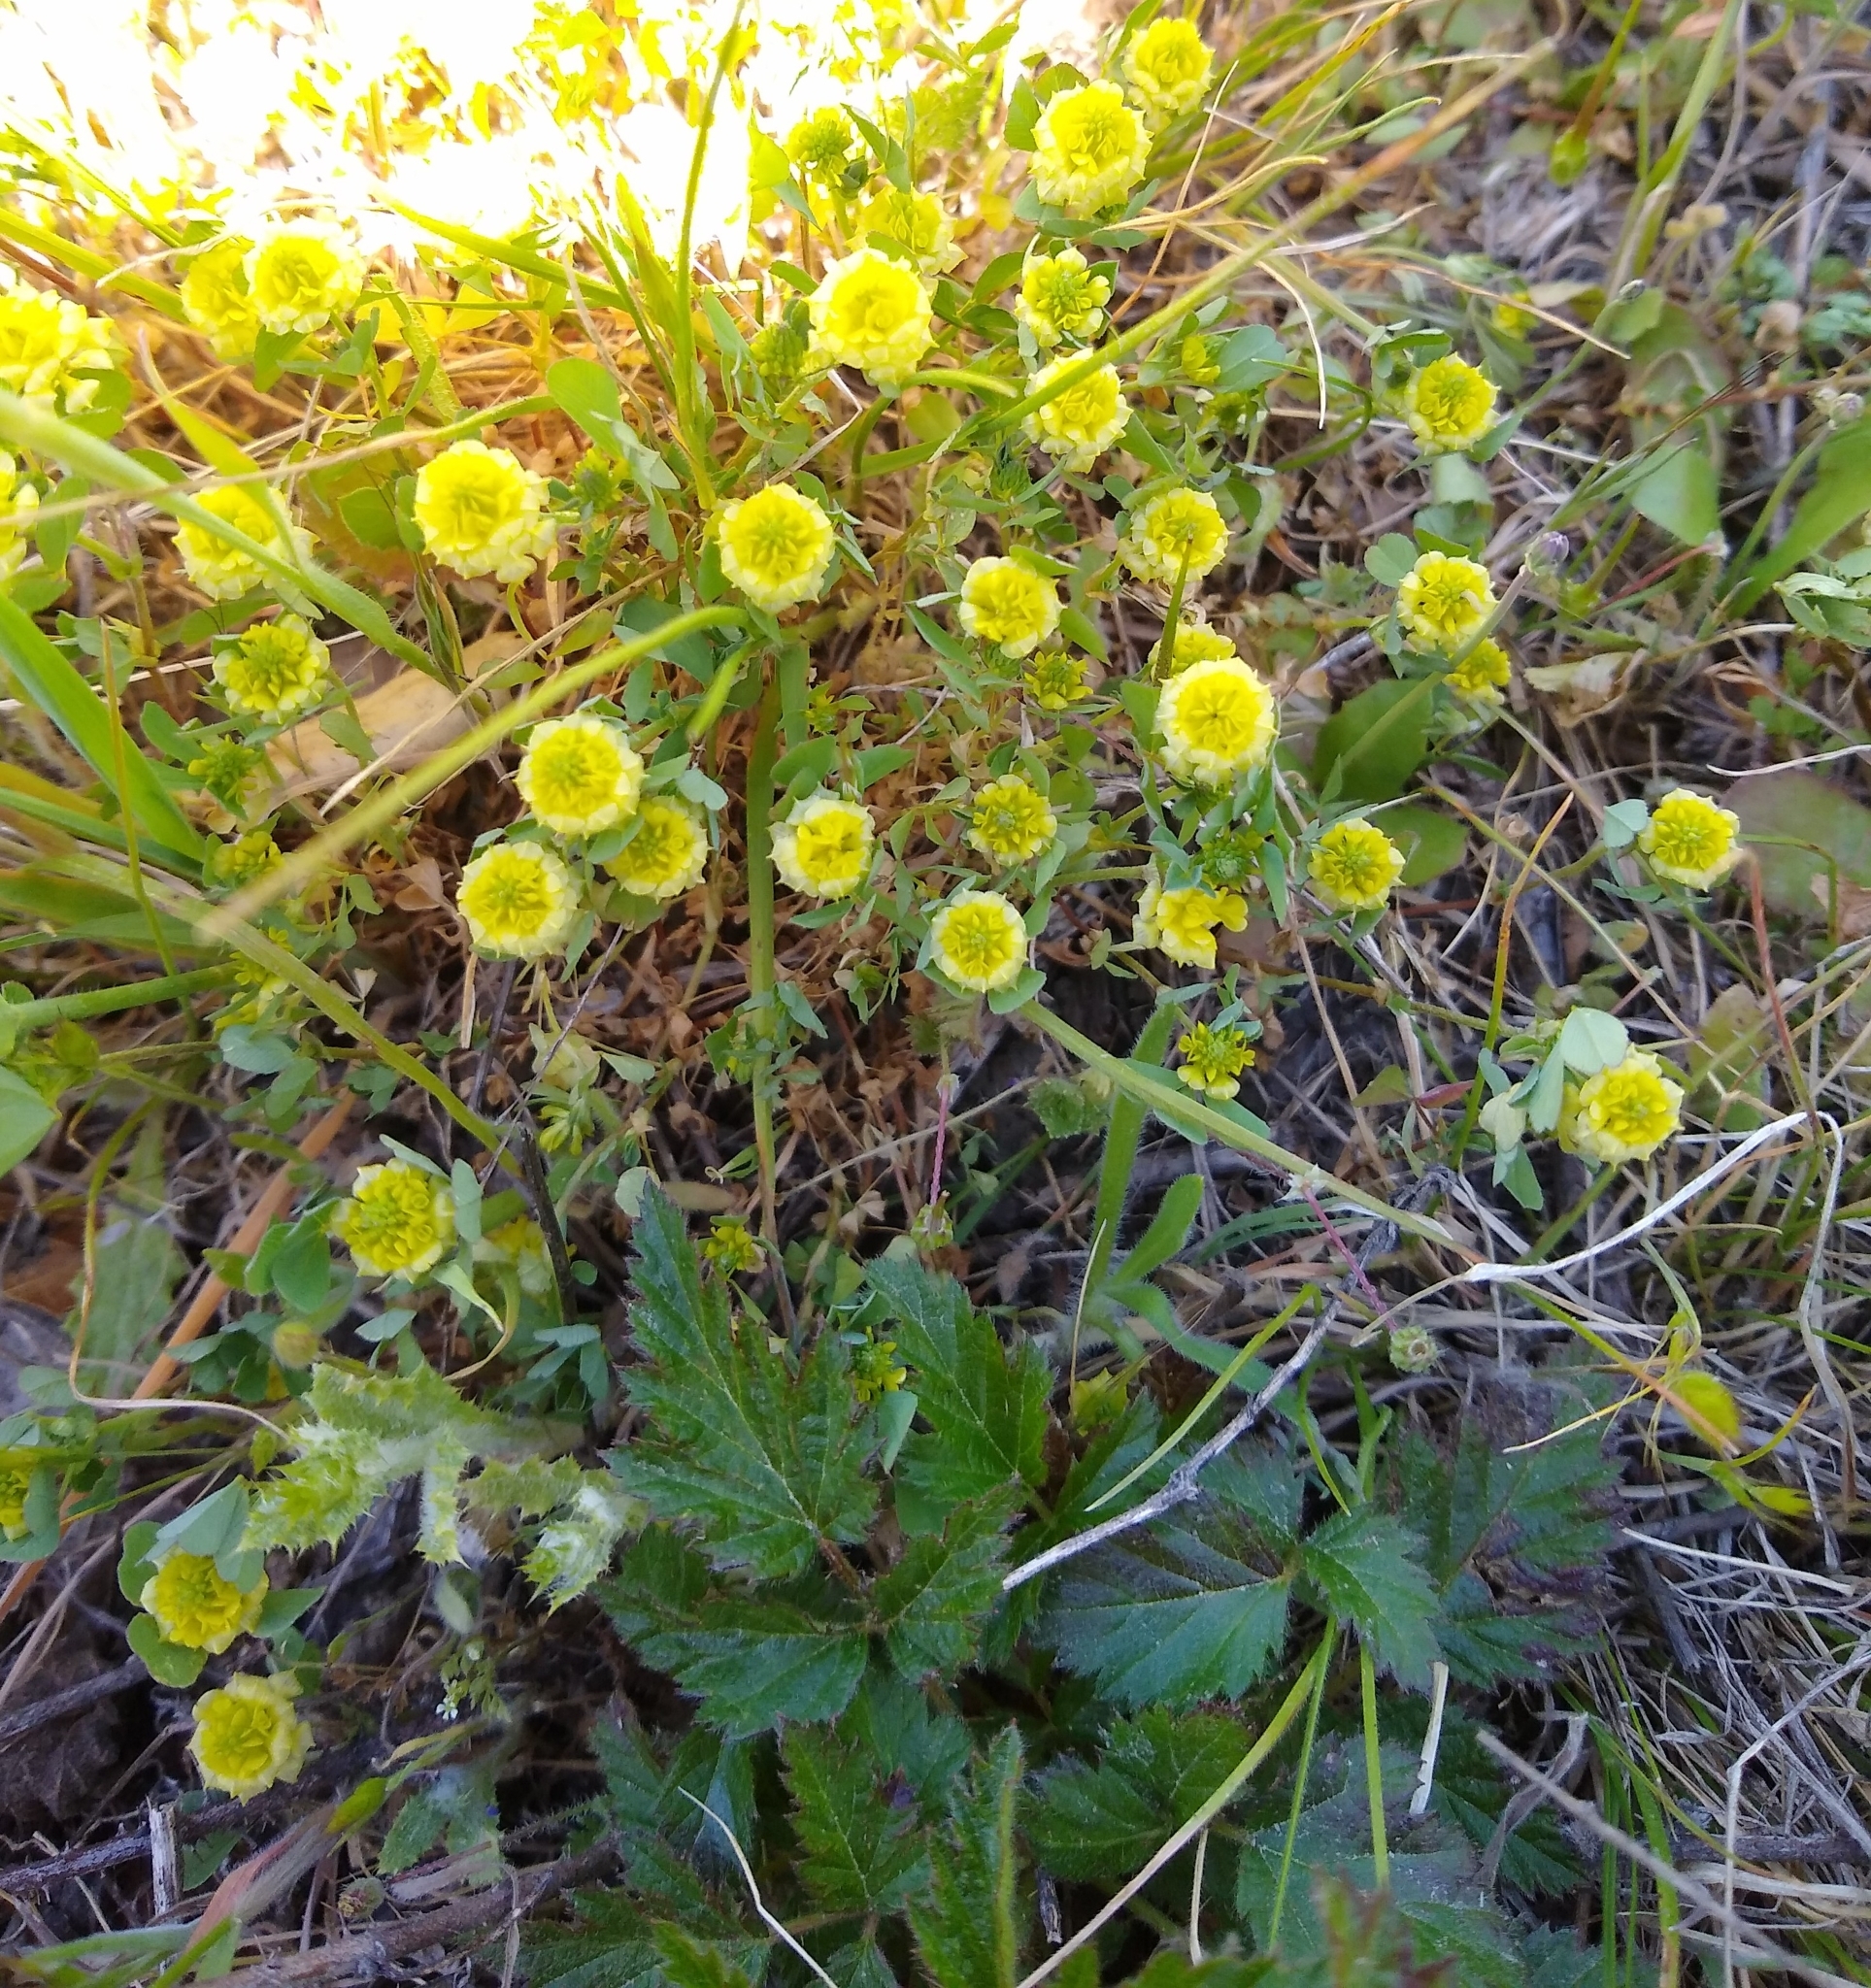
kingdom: Plantae
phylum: Tracheophyta
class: Magnoliopsida
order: Fabales
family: Fabaceae
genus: Trifolium
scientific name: Trifolium campestre
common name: Field clover
